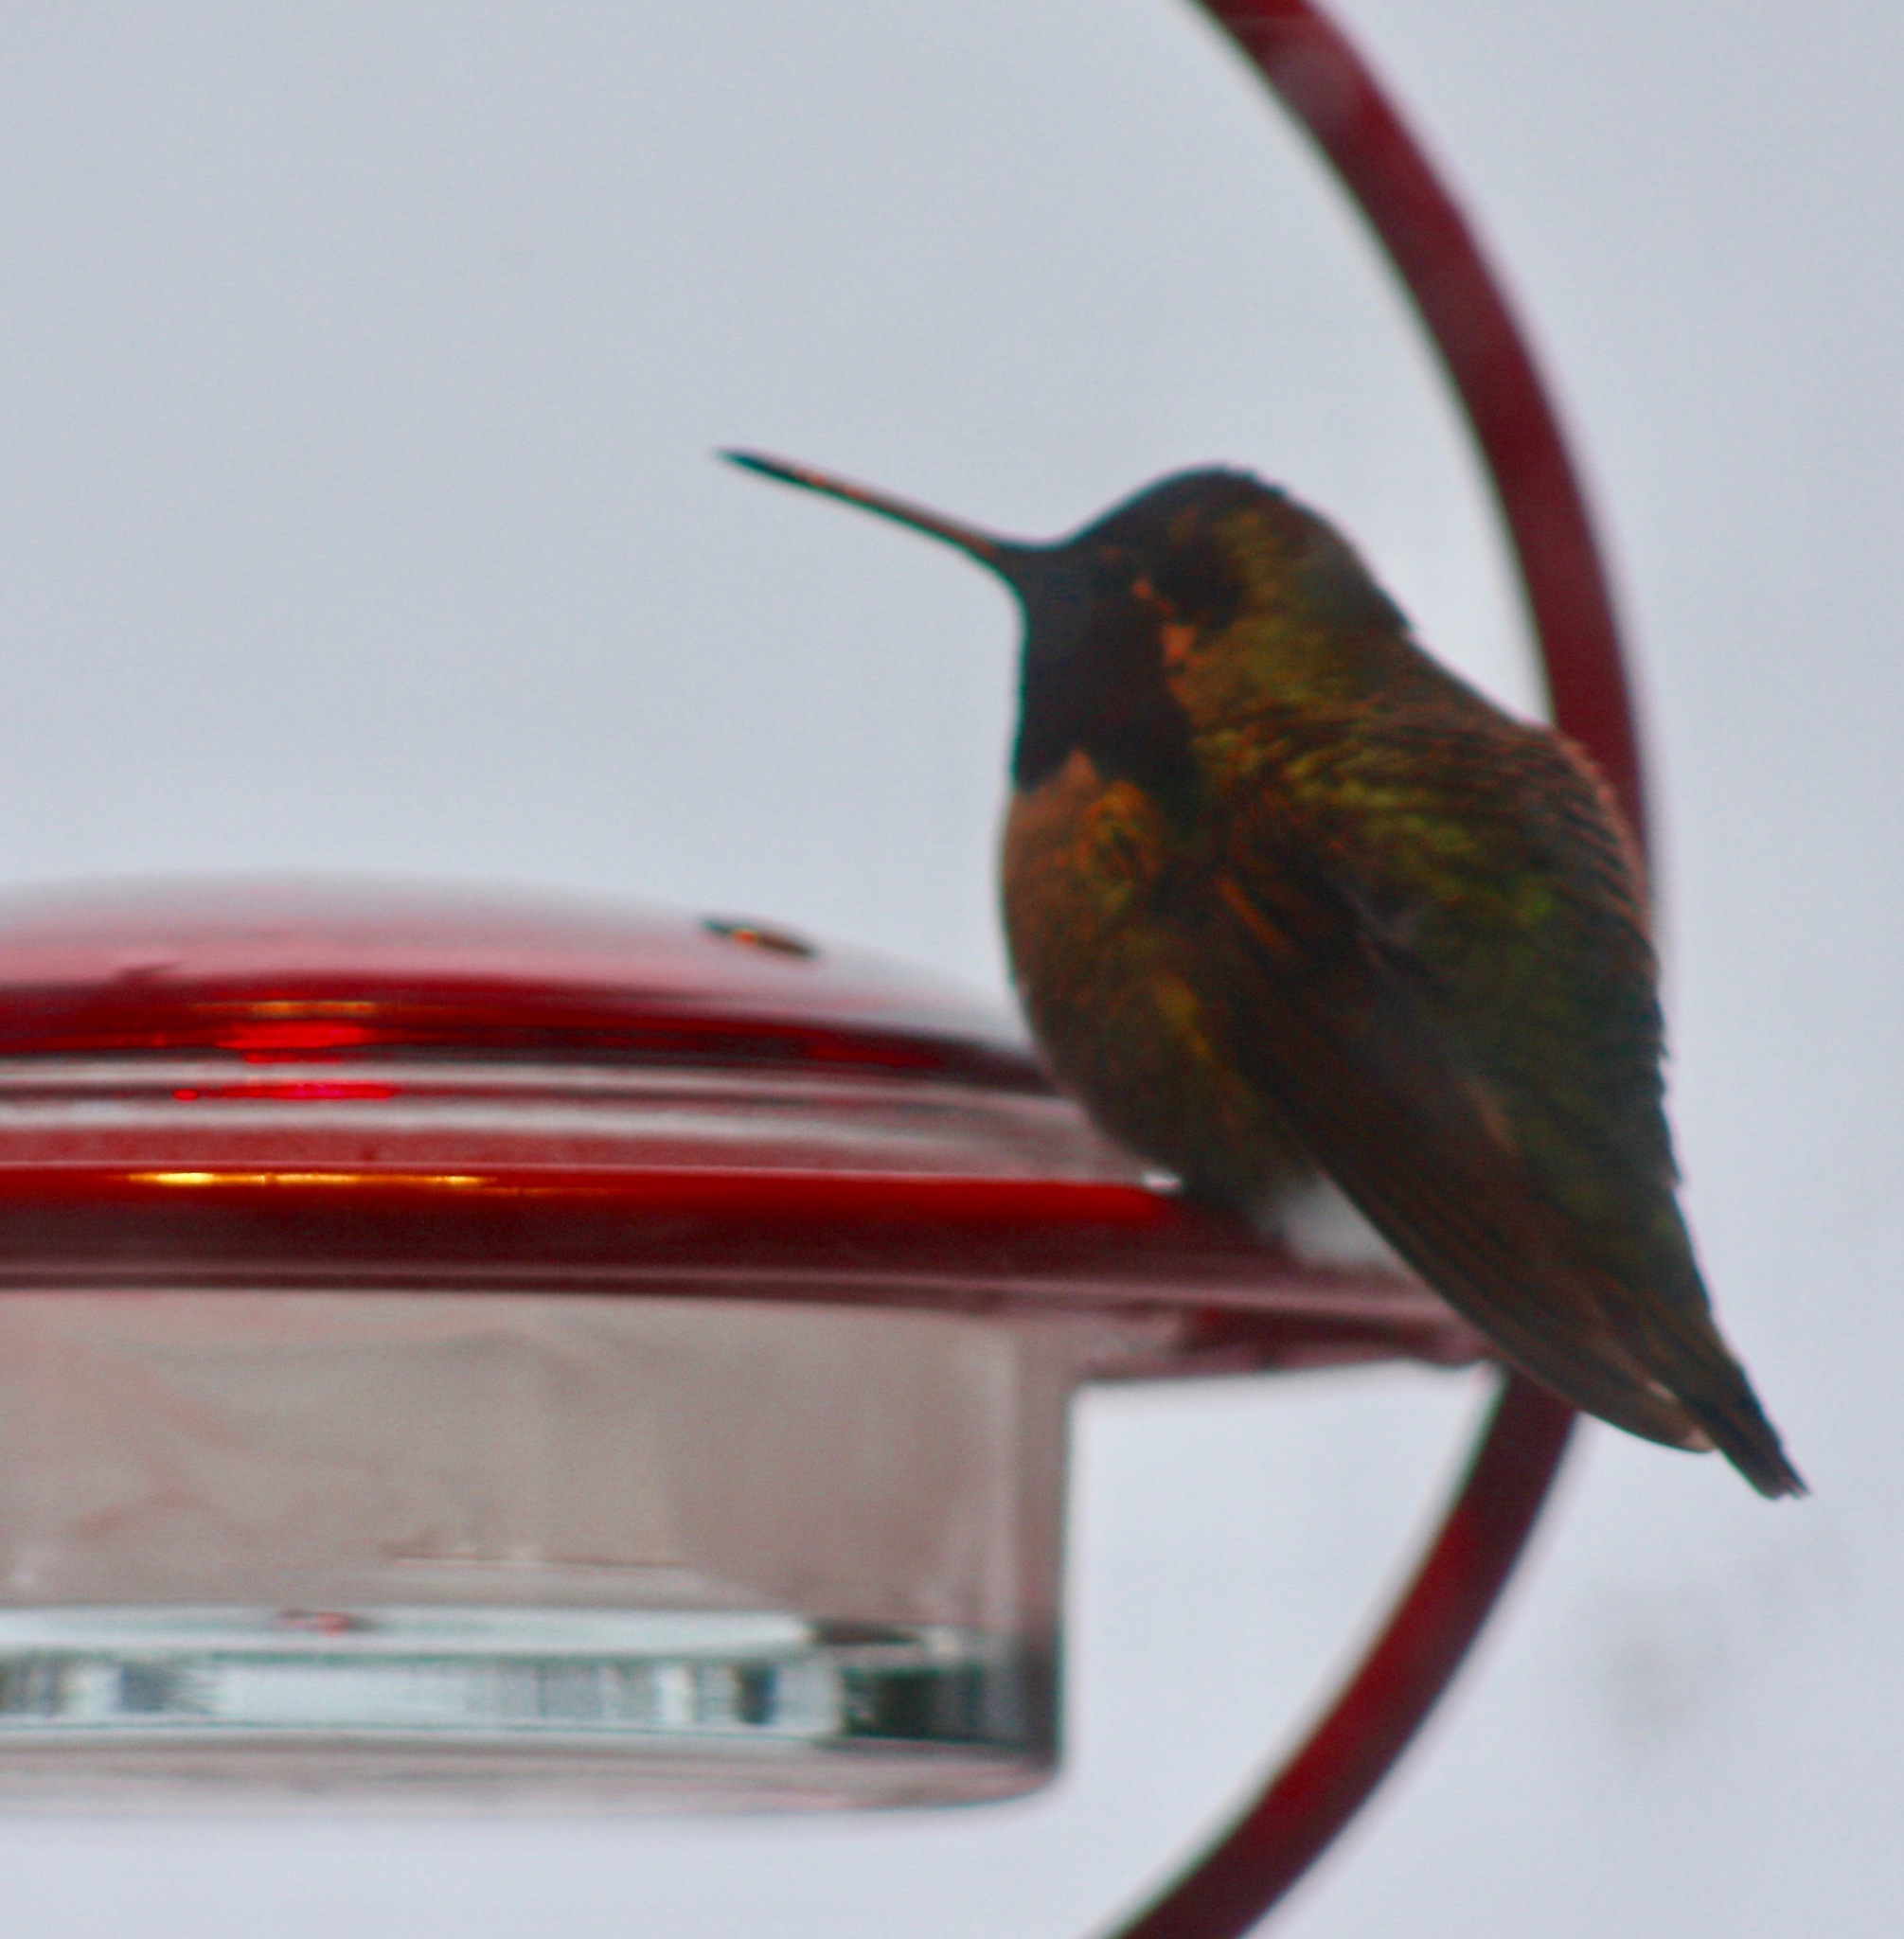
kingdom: Animalia
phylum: Chordata
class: Aves
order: Apodiformes
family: Trochilidae
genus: Calypte
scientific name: Calypte anna
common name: Anna's hummingbird
